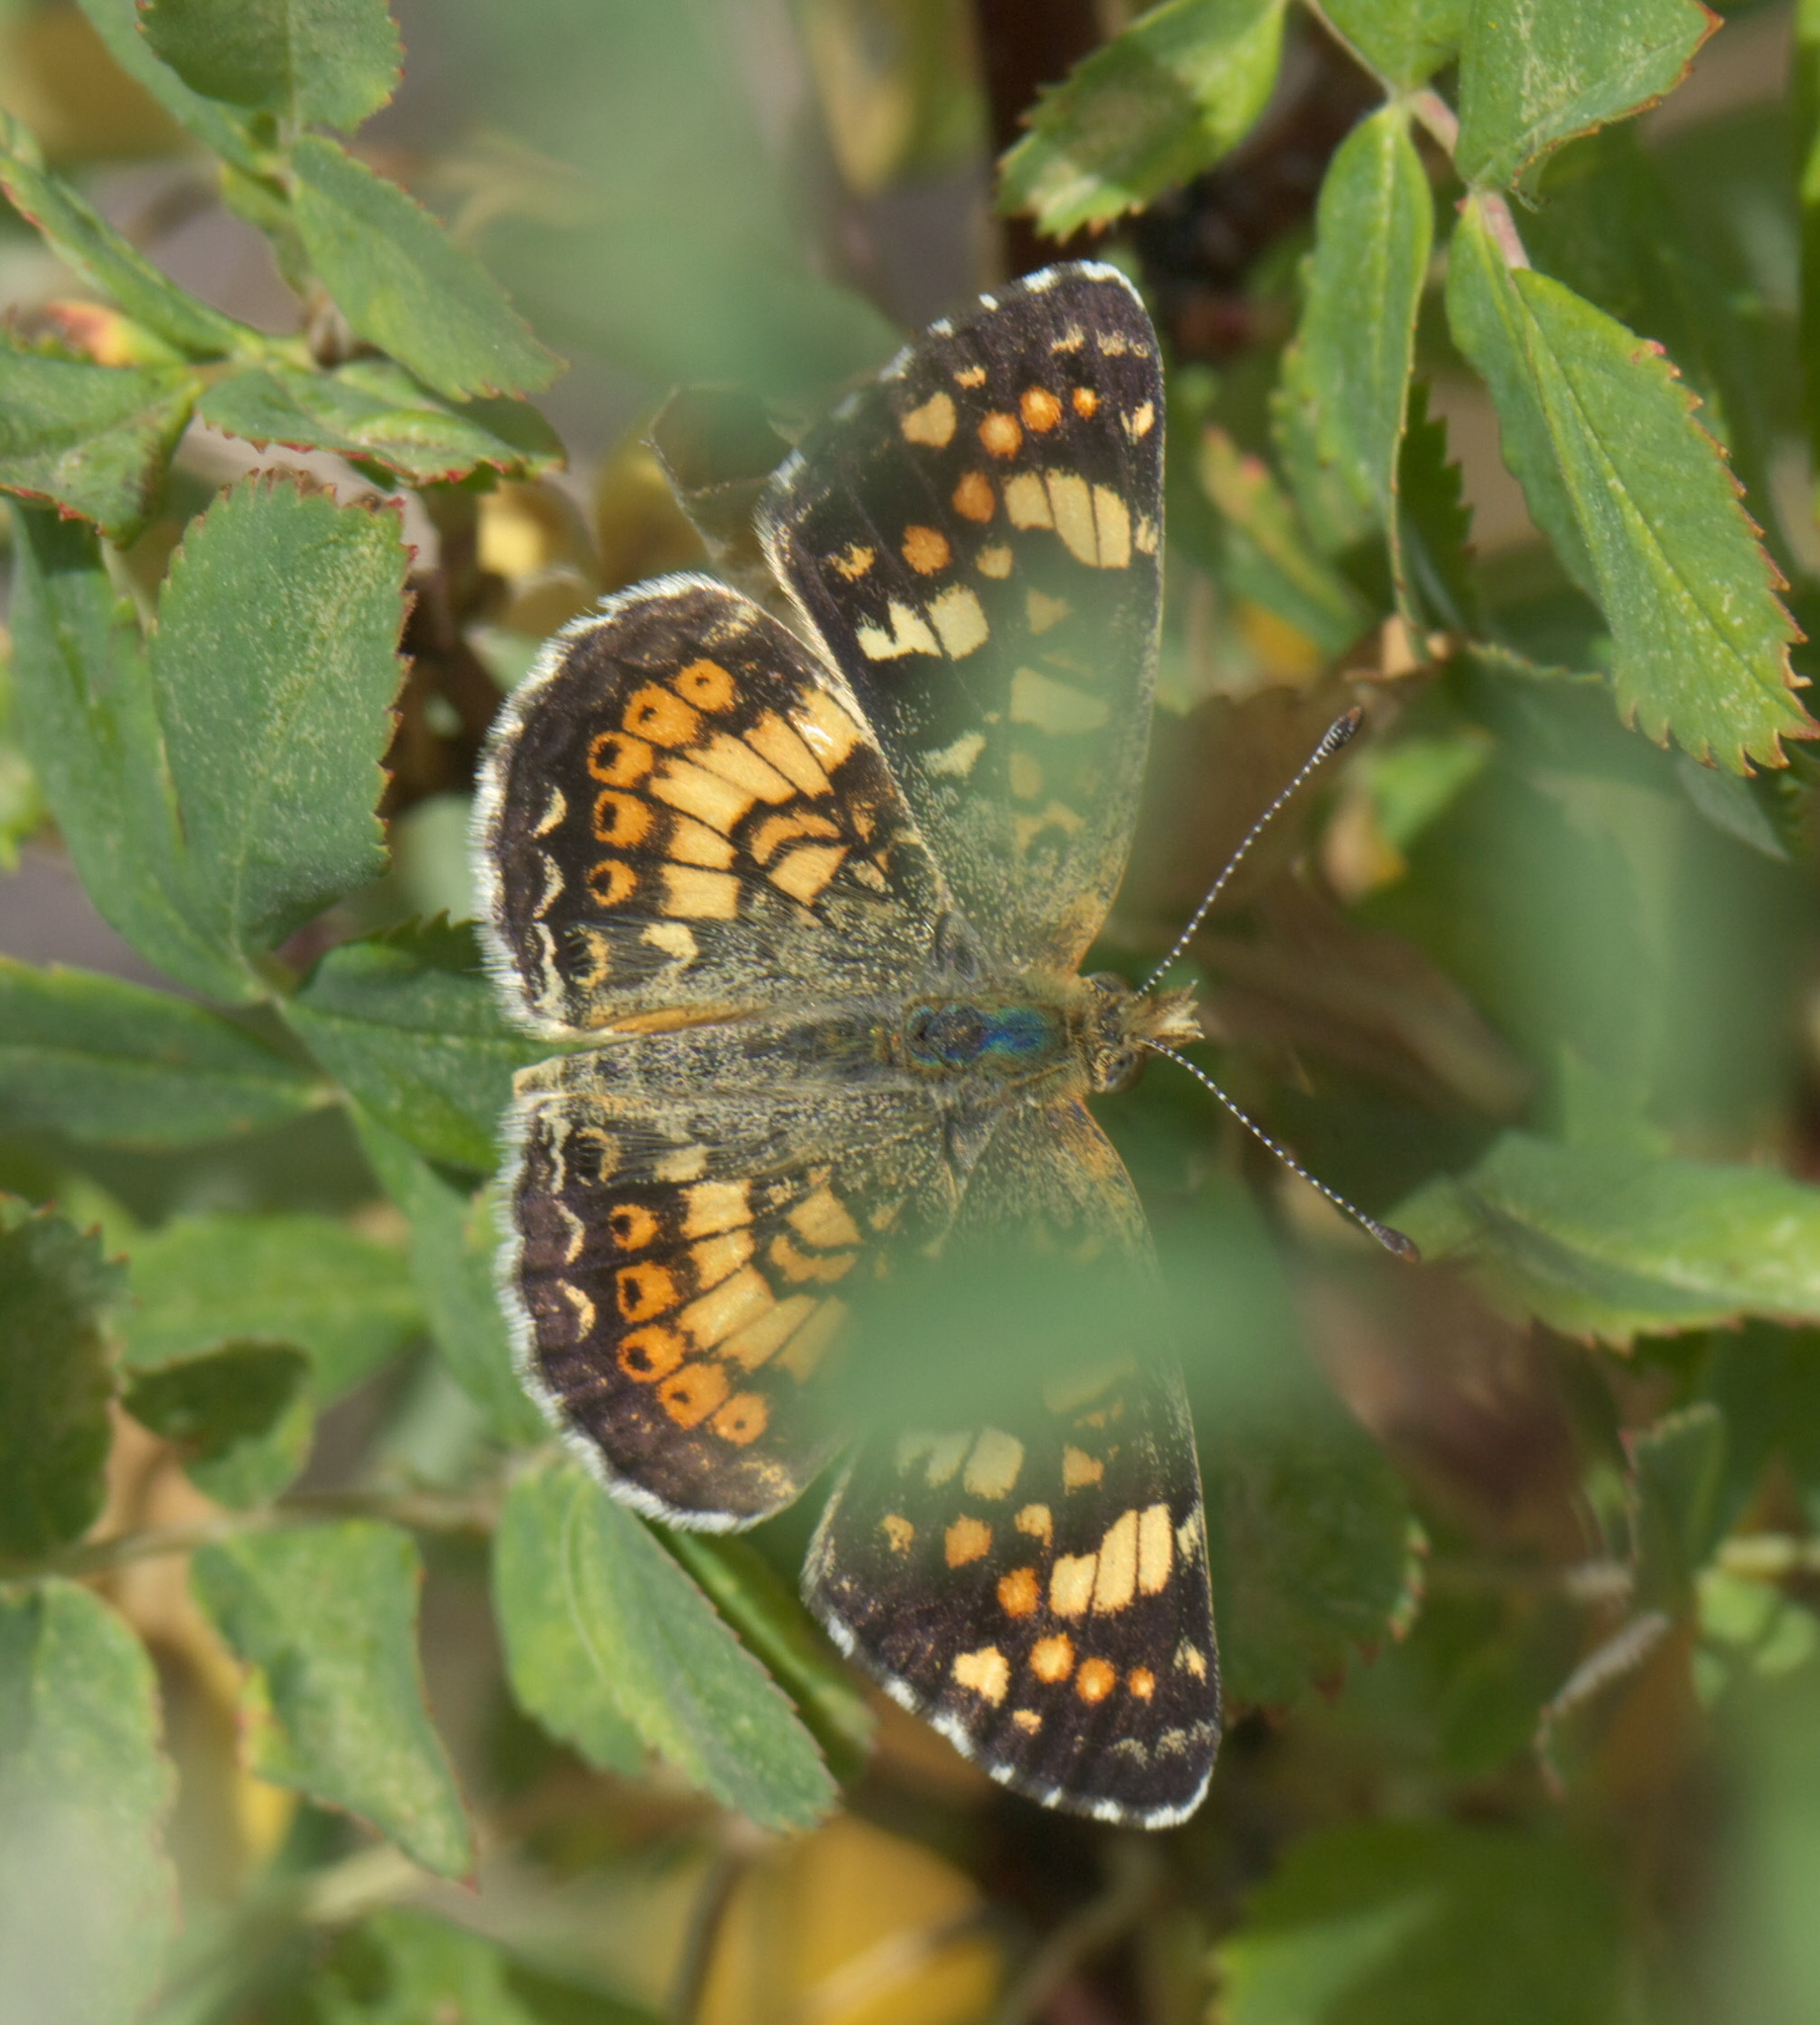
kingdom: Animalia
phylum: Arthropoda
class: Insecta
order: Lepidoptera
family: Nymphalidae
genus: Phyciodes
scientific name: Phyciodes tharos
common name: Pearl crescent
